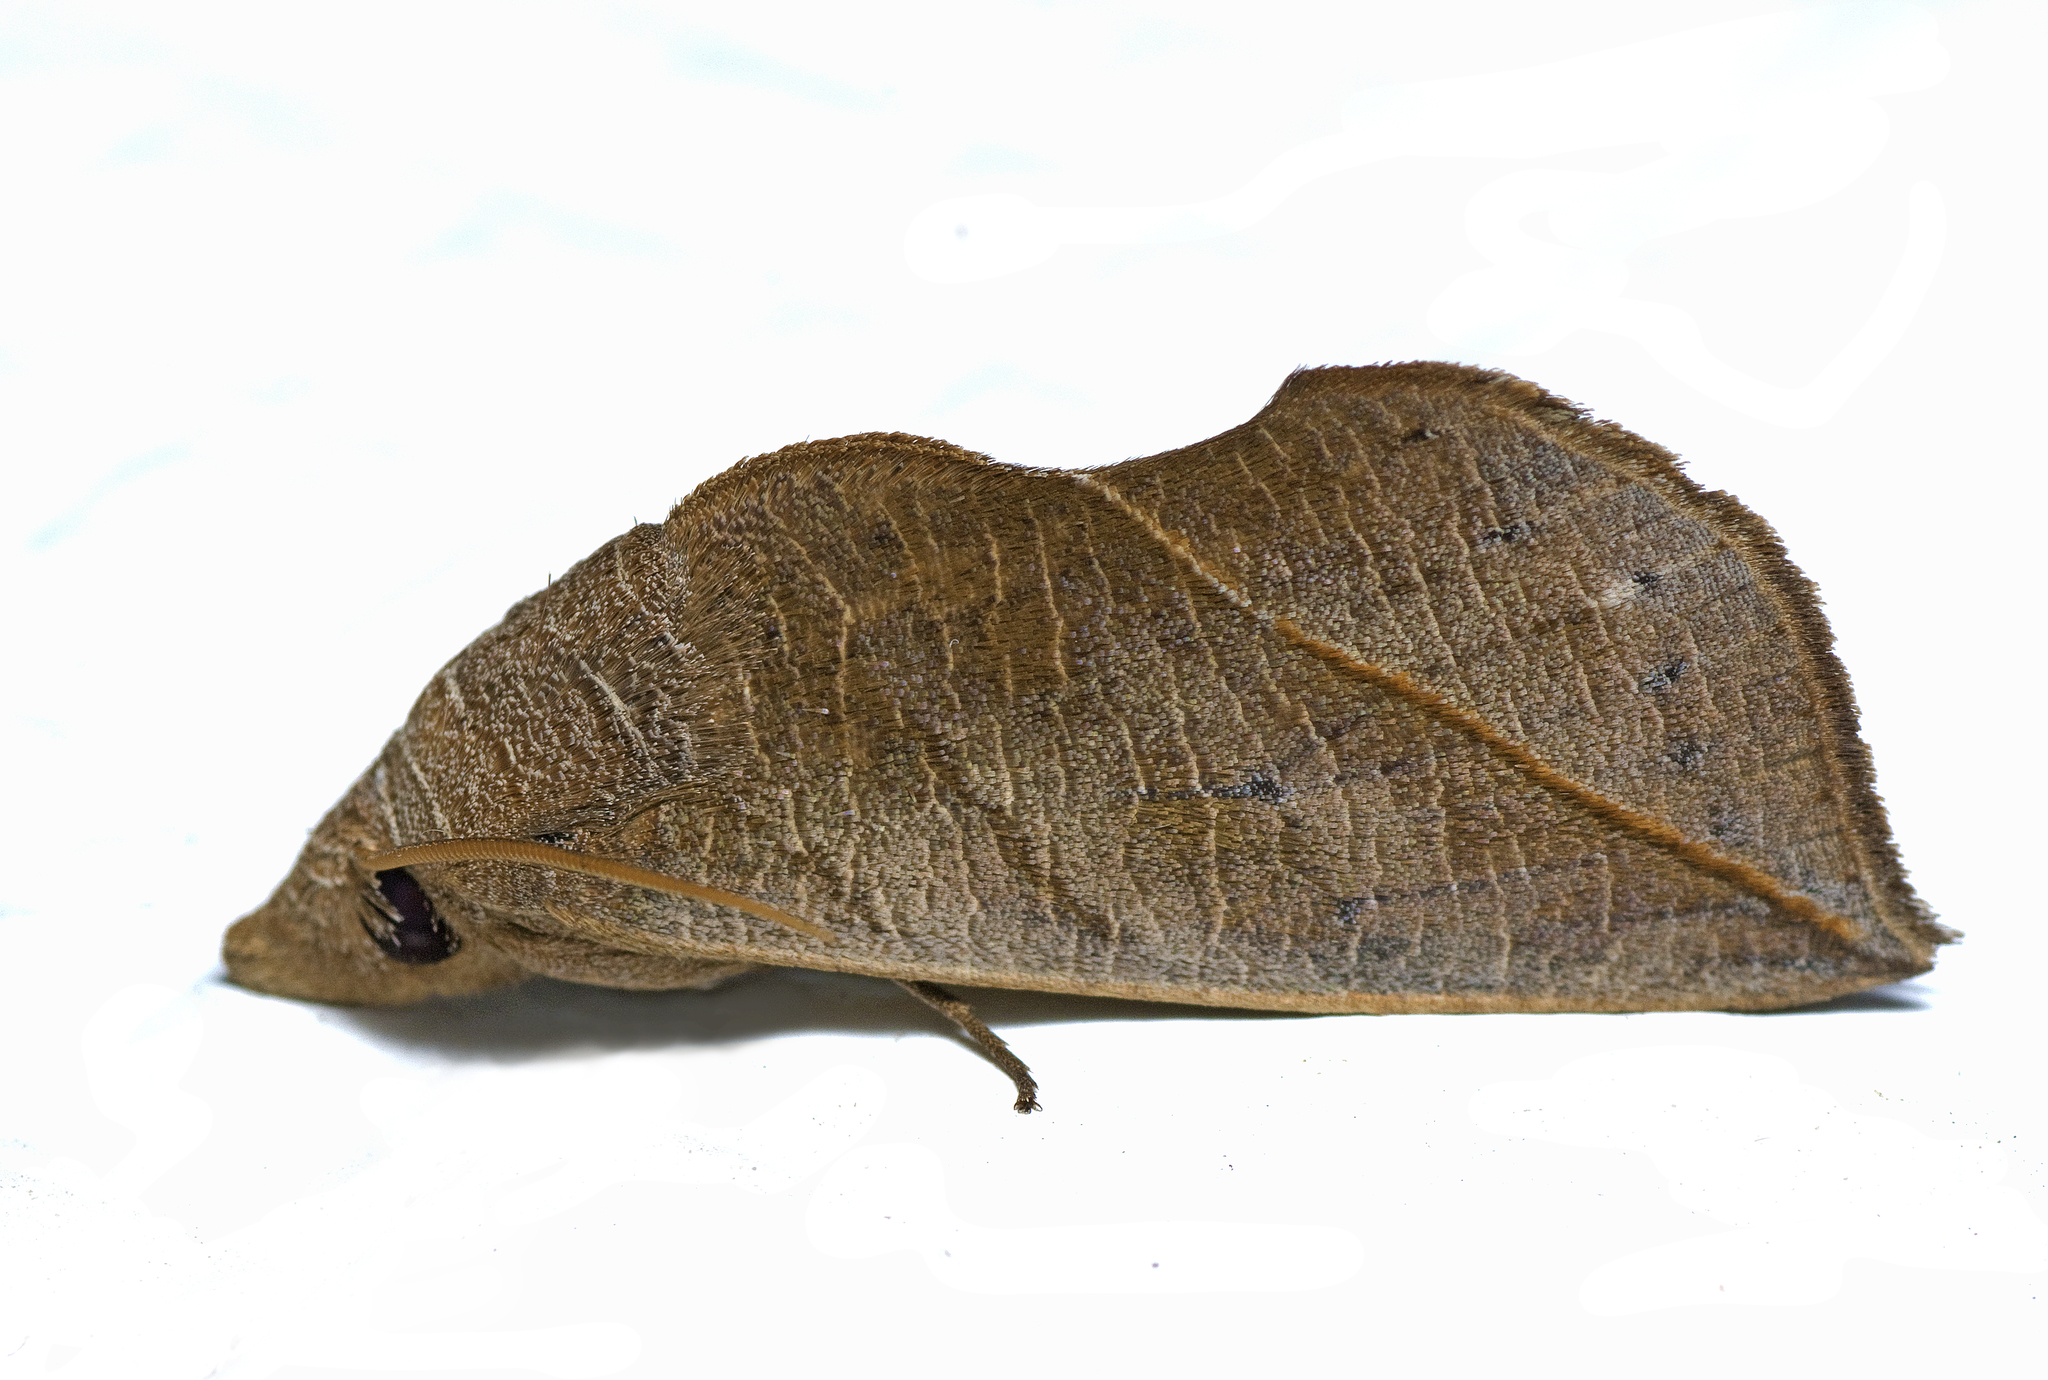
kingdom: Animalia
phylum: Arthropoda
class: Insecta
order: Lepidoptera
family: Erebidae
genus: Calyptra
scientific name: Calyptra minuticornis
